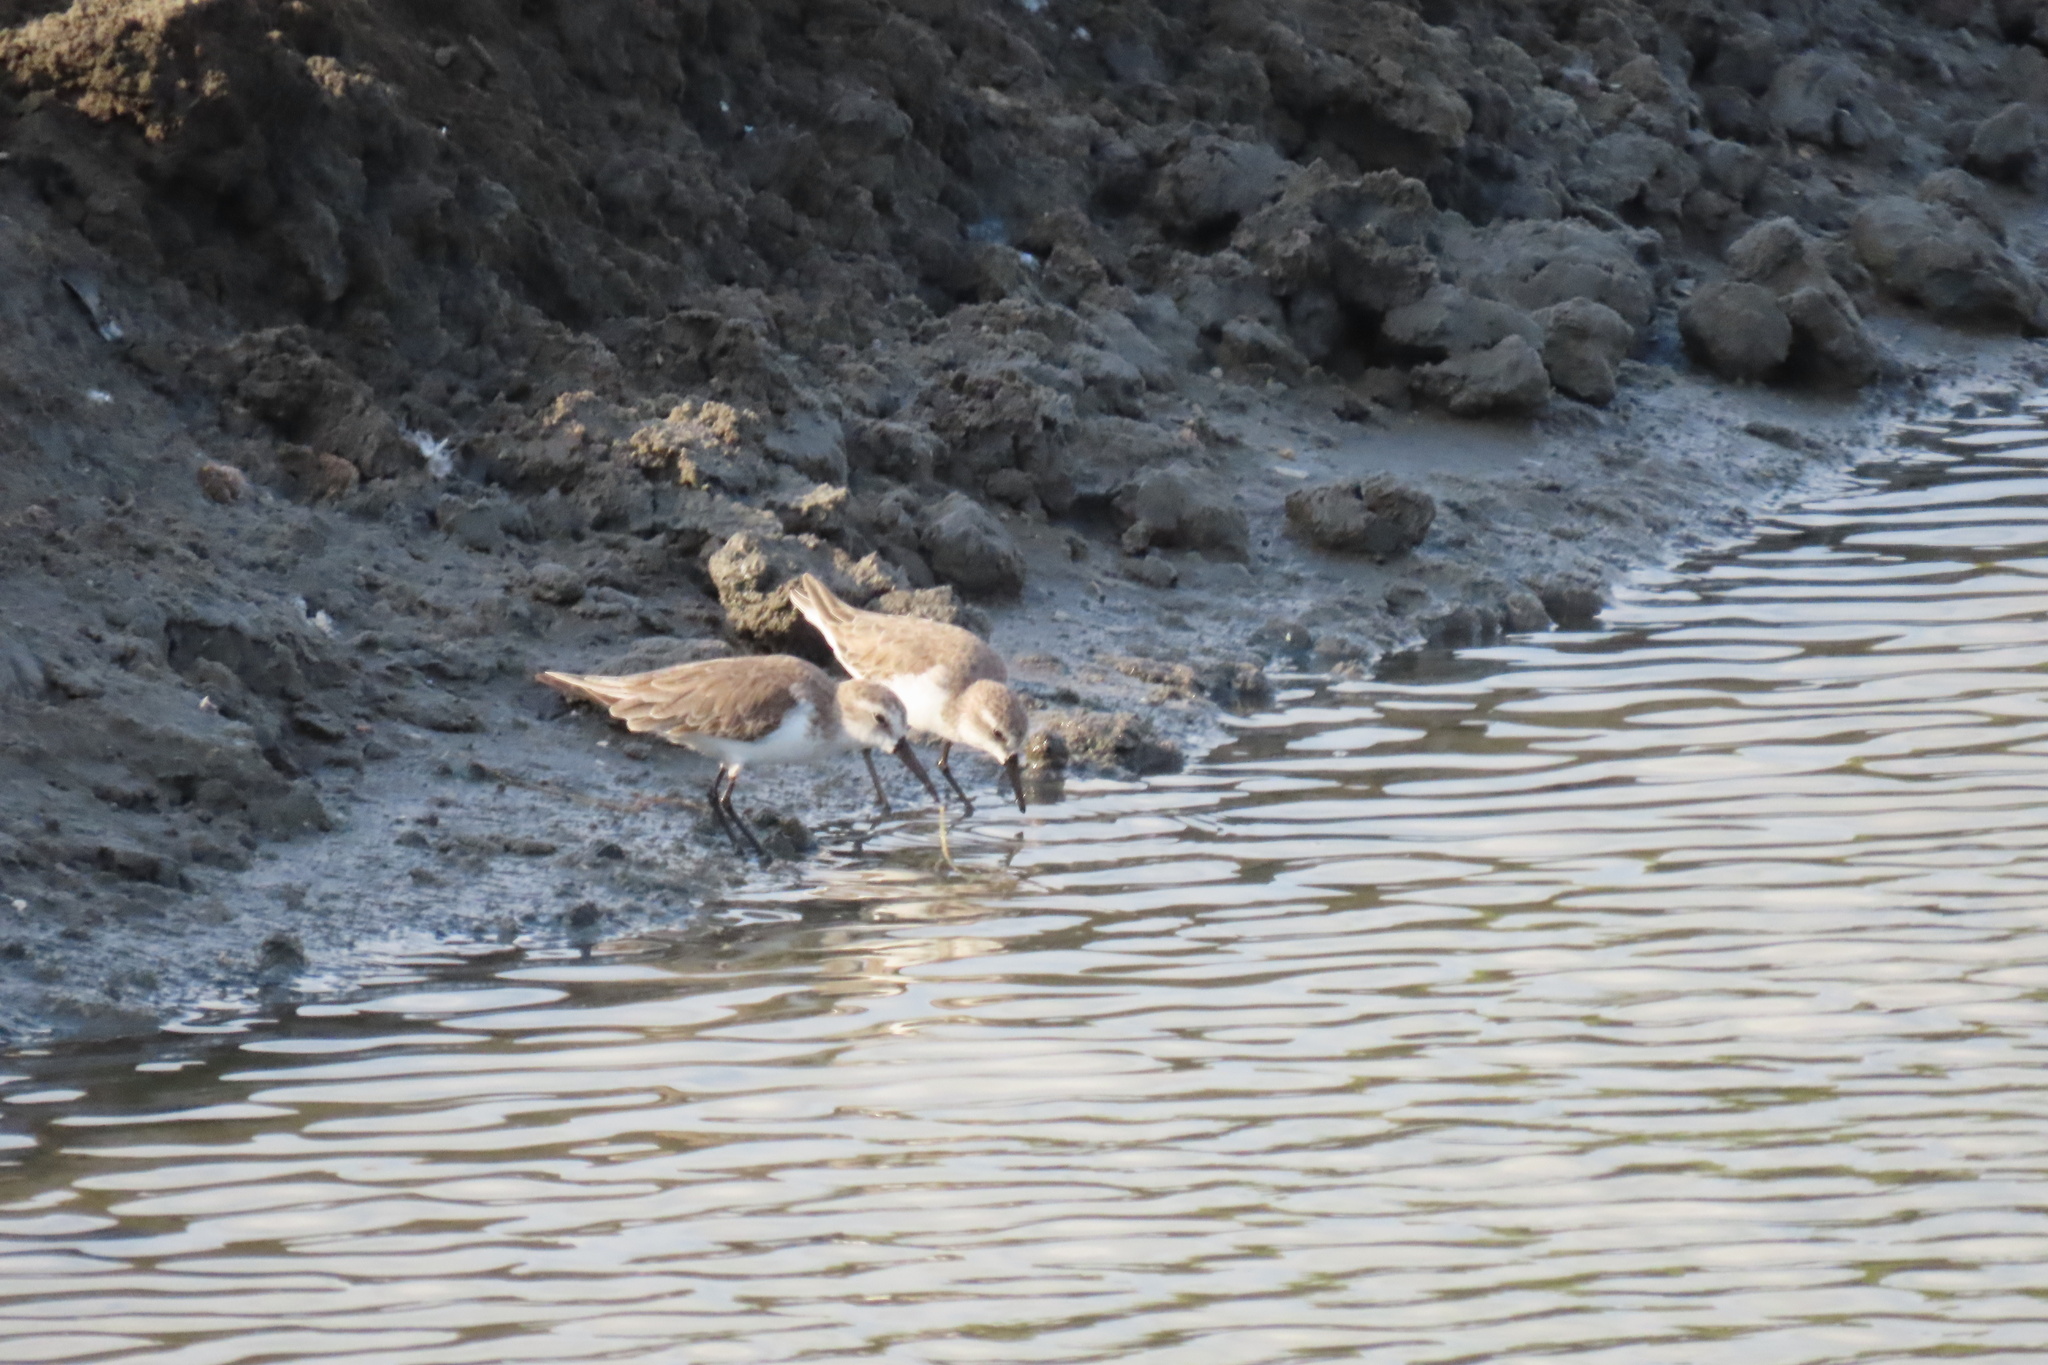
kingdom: Animalia
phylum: Chordata
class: Aves
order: Charadriiformes
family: Scolopacidae
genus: Calidris
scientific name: Calidris mauri
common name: Western sandpiper
